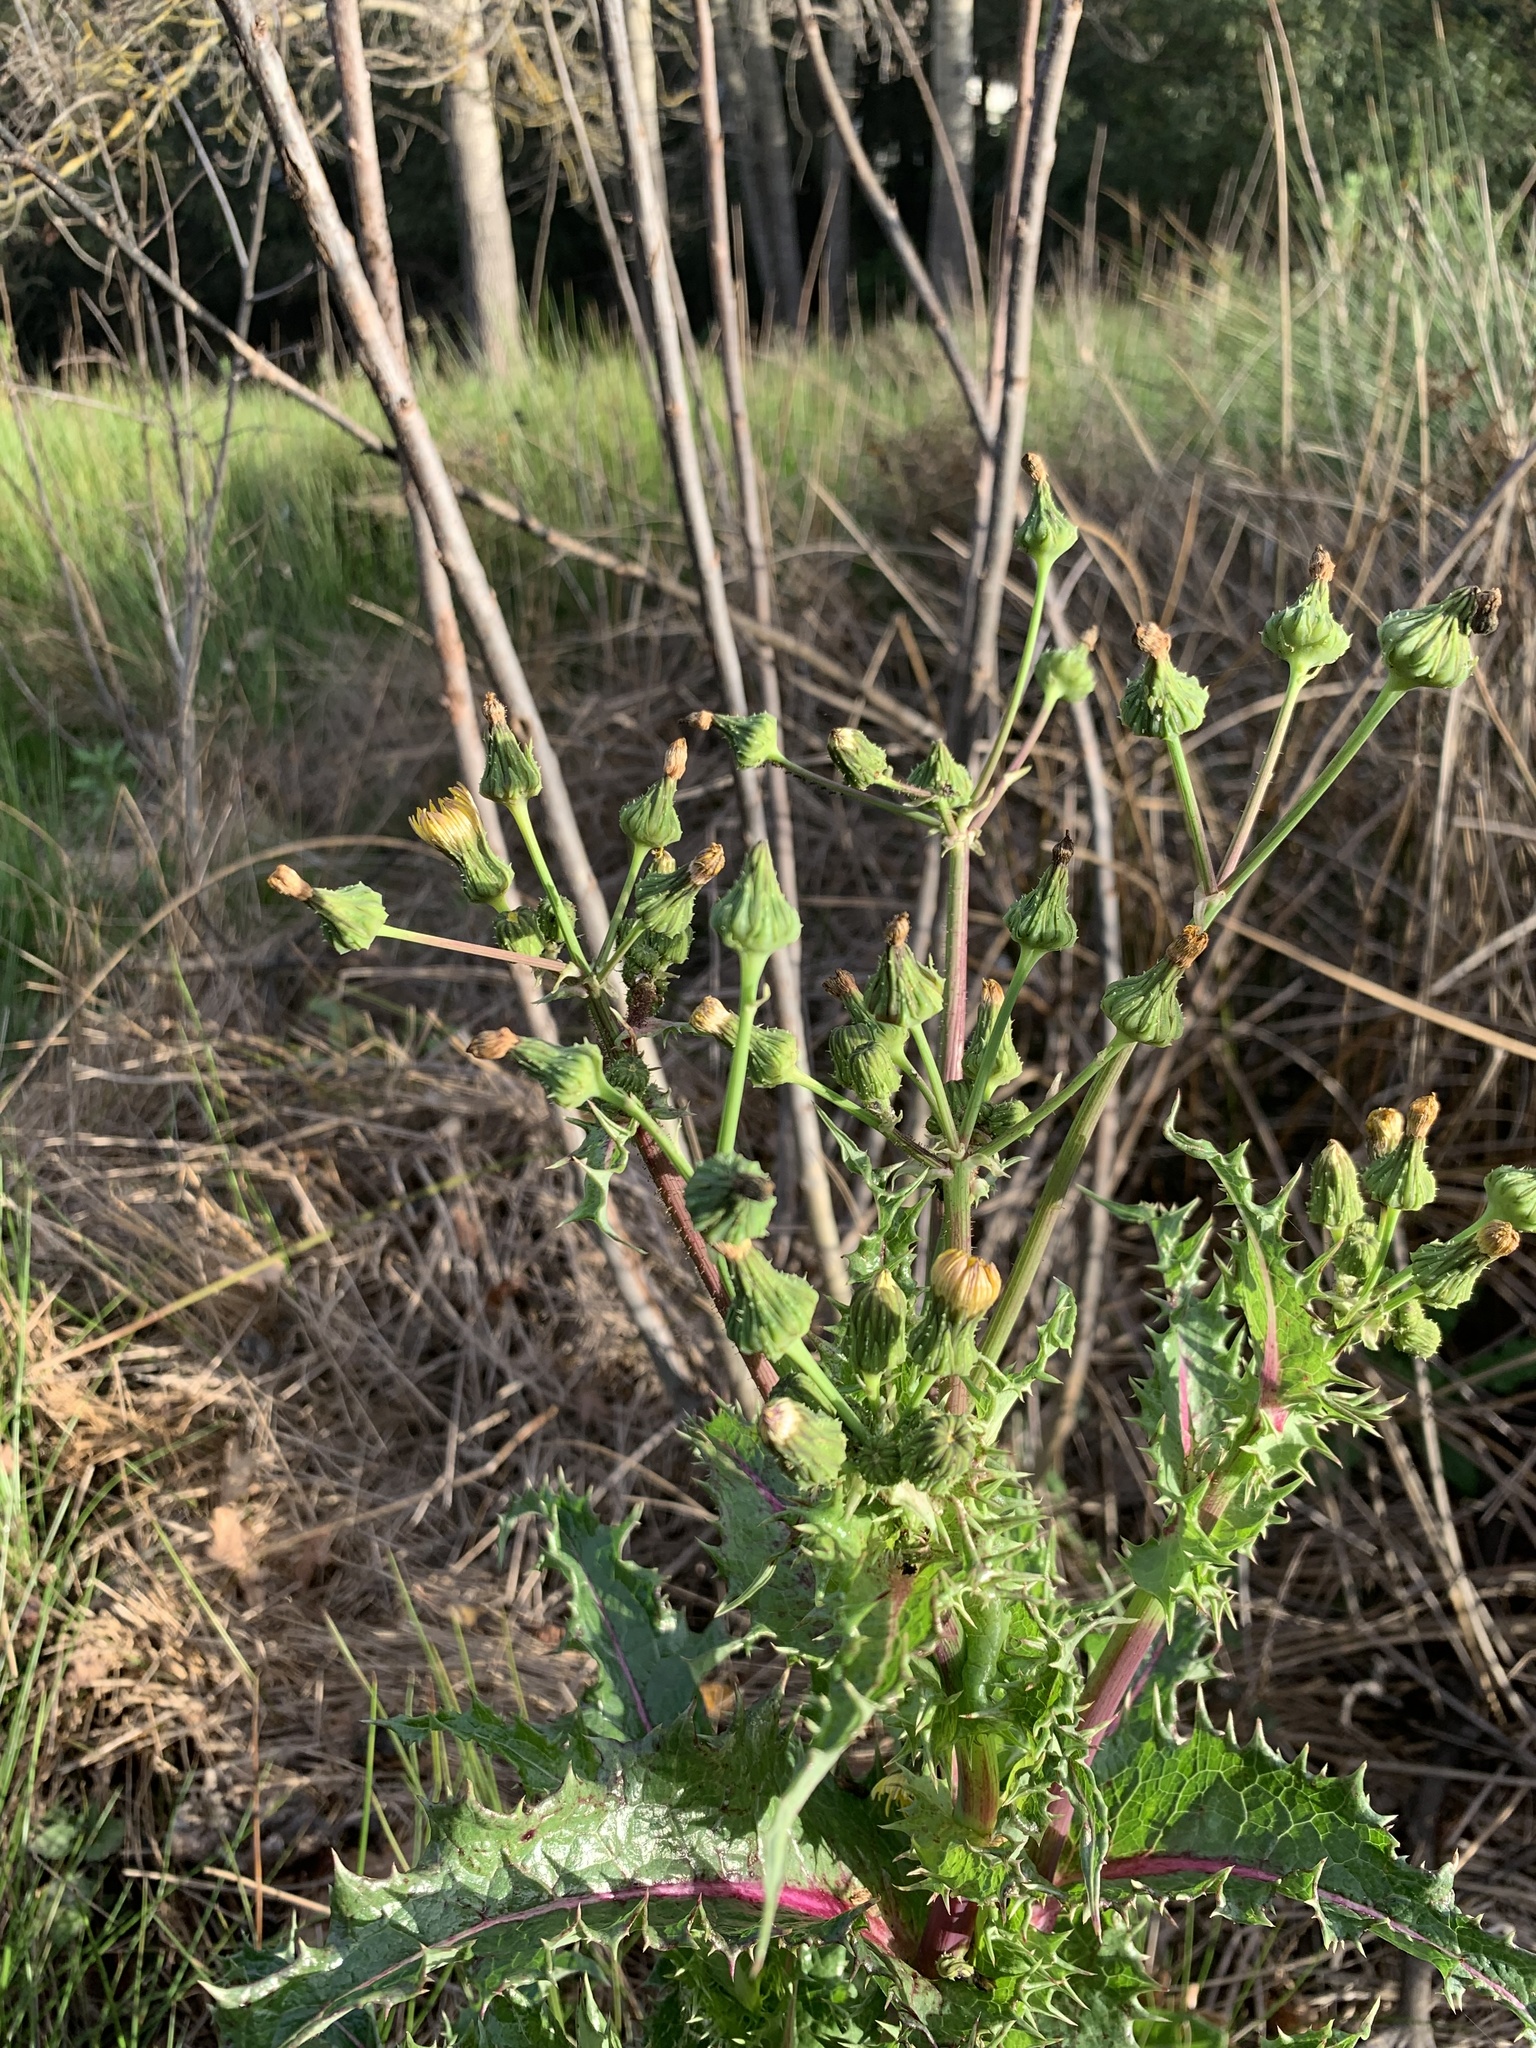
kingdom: Plantae
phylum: Tracheophyta
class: Magnoliopsida
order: Asterales
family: Asteraceae
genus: Sonchus
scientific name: Sonchus asper
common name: Prickly sow-thistle
